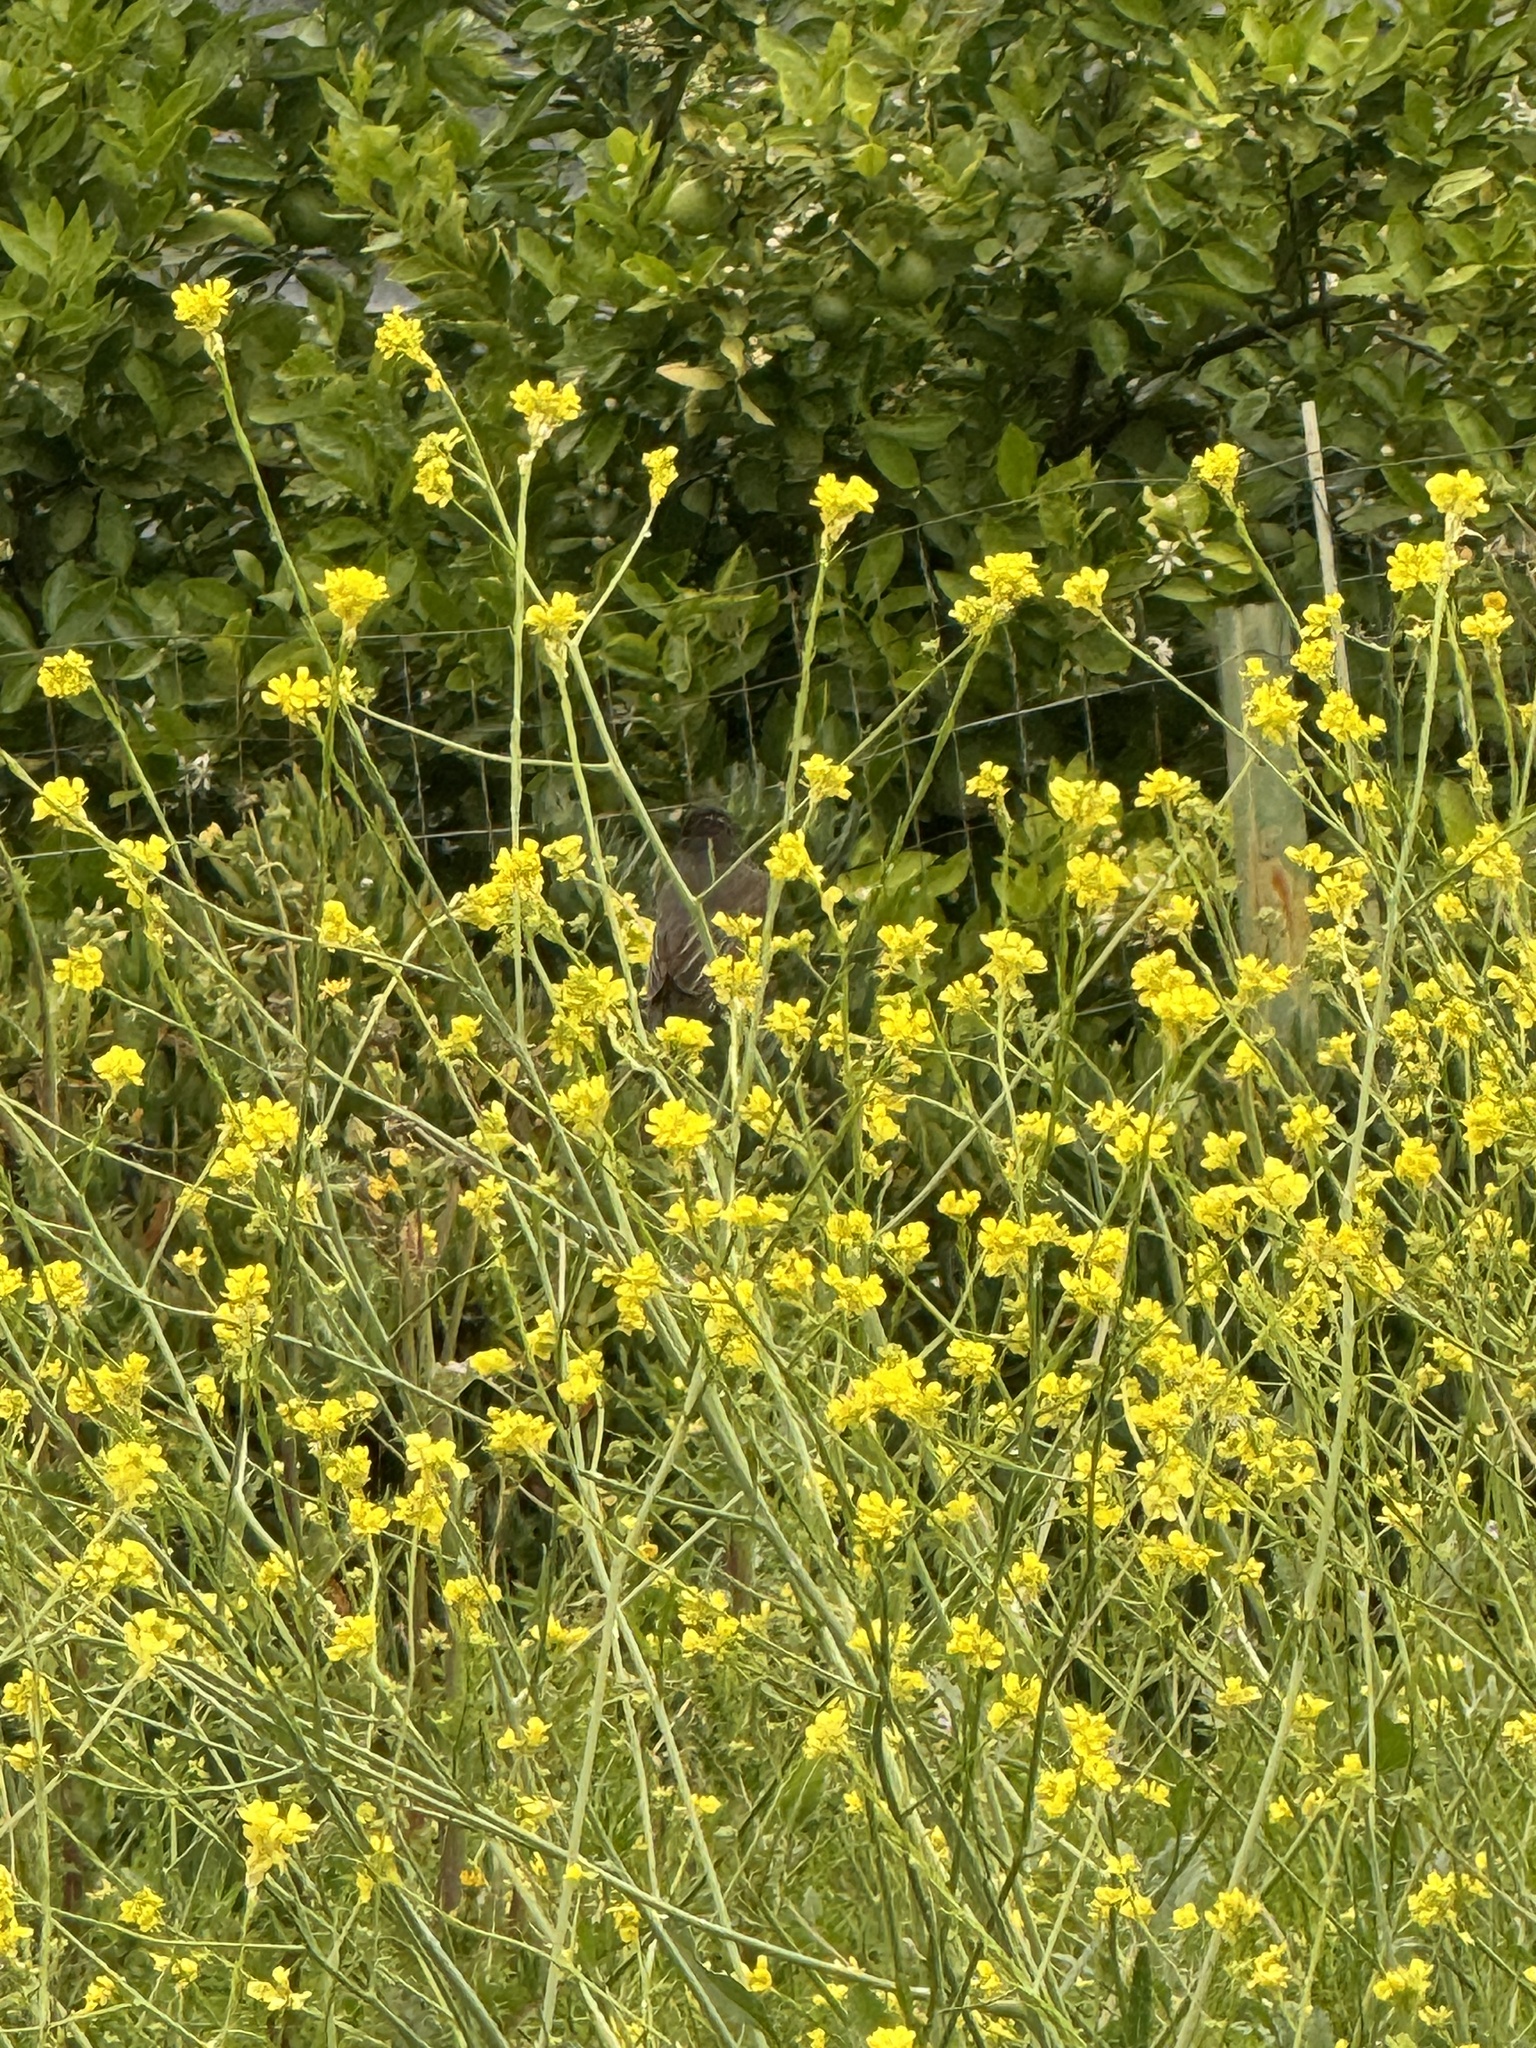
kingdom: Animalia
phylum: Chordata
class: Aves
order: Passeriformes
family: Tyrannidae
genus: Sayornis
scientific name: Sayornis nigricans
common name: Black phoebe
